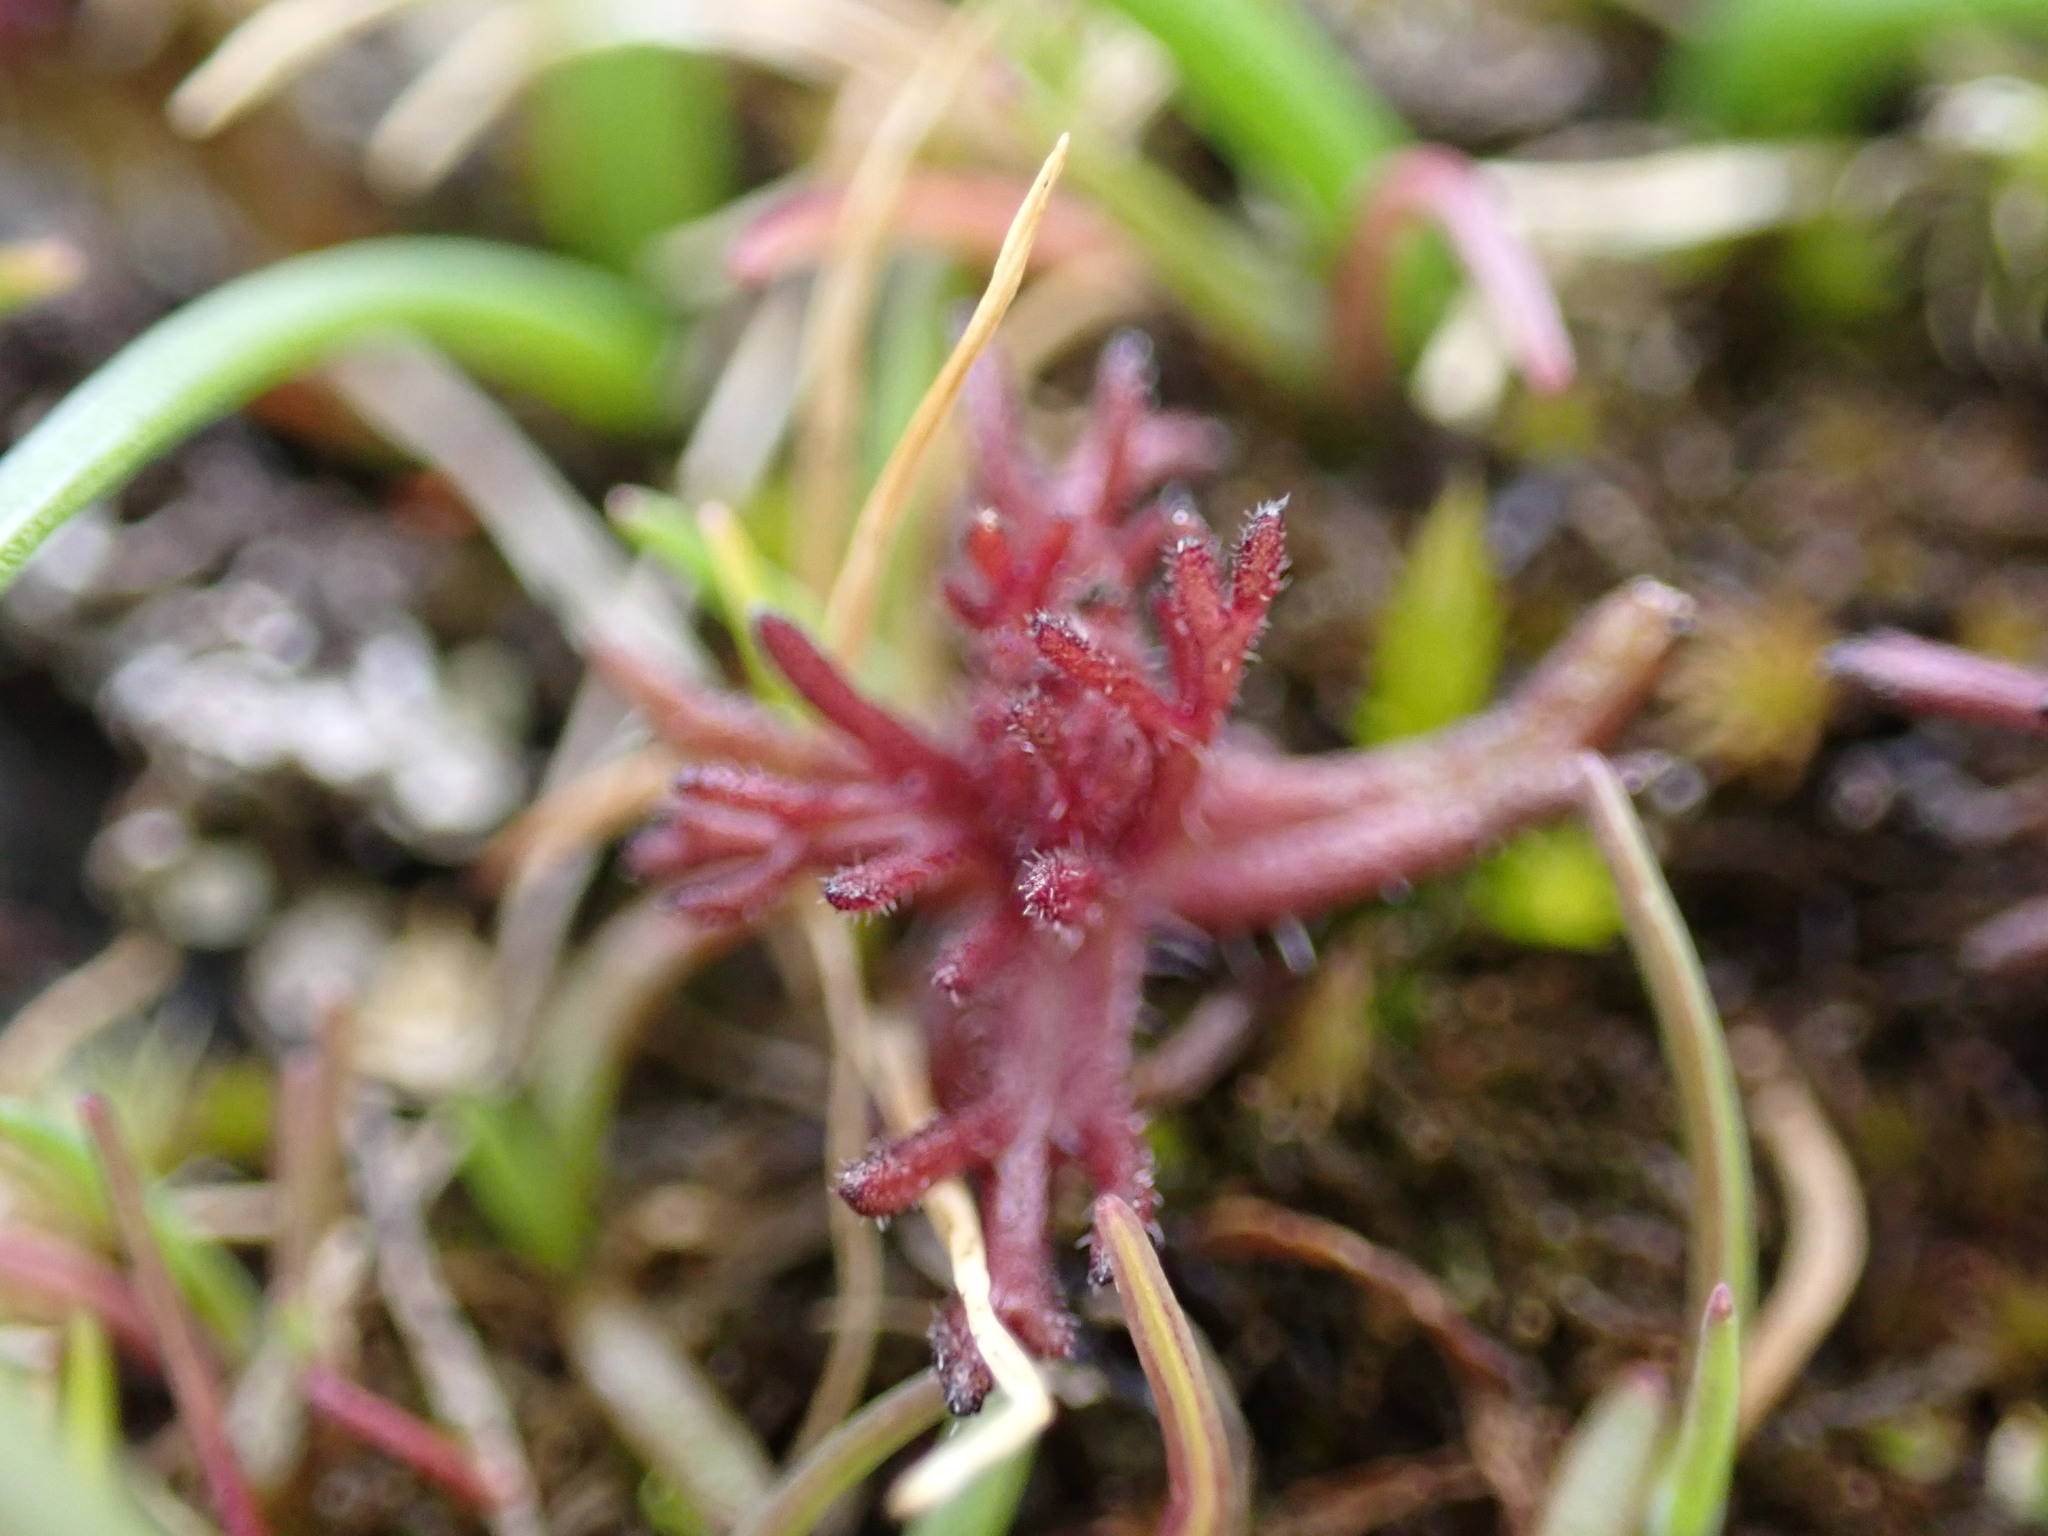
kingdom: Plantae
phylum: Tracheophyta
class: Magnoliopsida
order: Lamiales
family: Orobanchaceae
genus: Triphysaria
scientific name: Triphysaria pusilla
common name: Dwarf false owl-clover
